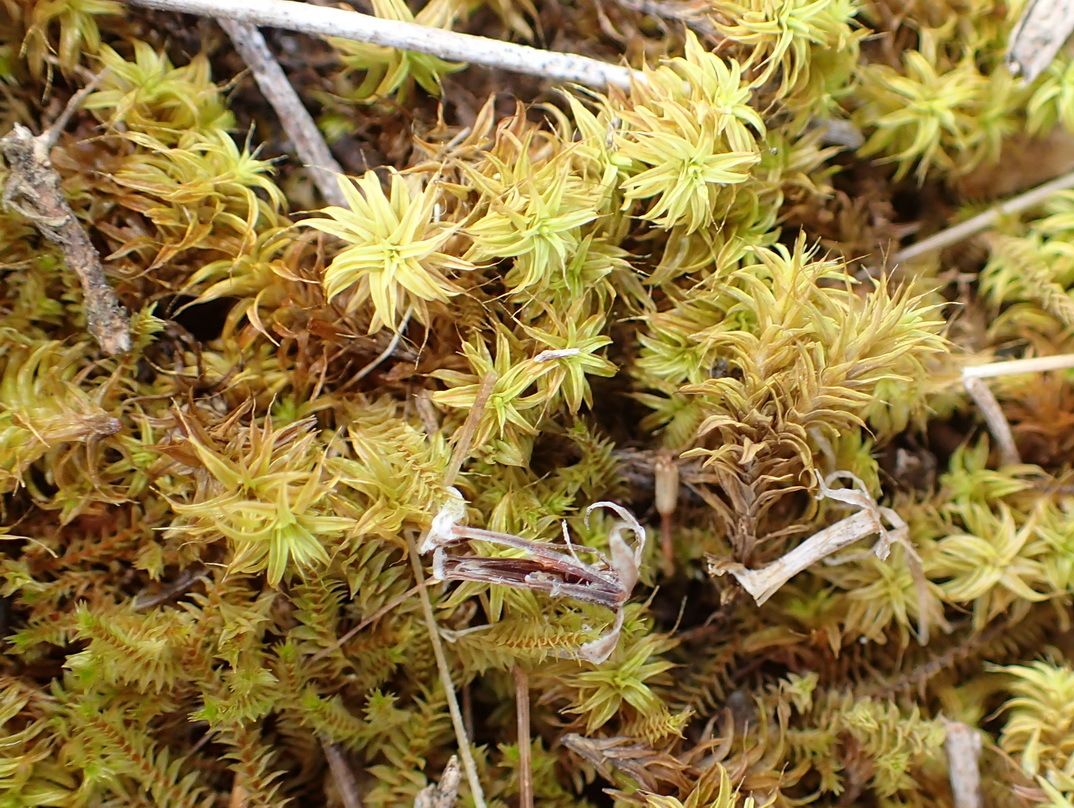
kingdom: Plantae
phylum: Bryophyta
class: Bryopsida
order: Pottiales
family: Pottiaceae
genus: Triquetrella
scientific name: Triquetrella tristicha
